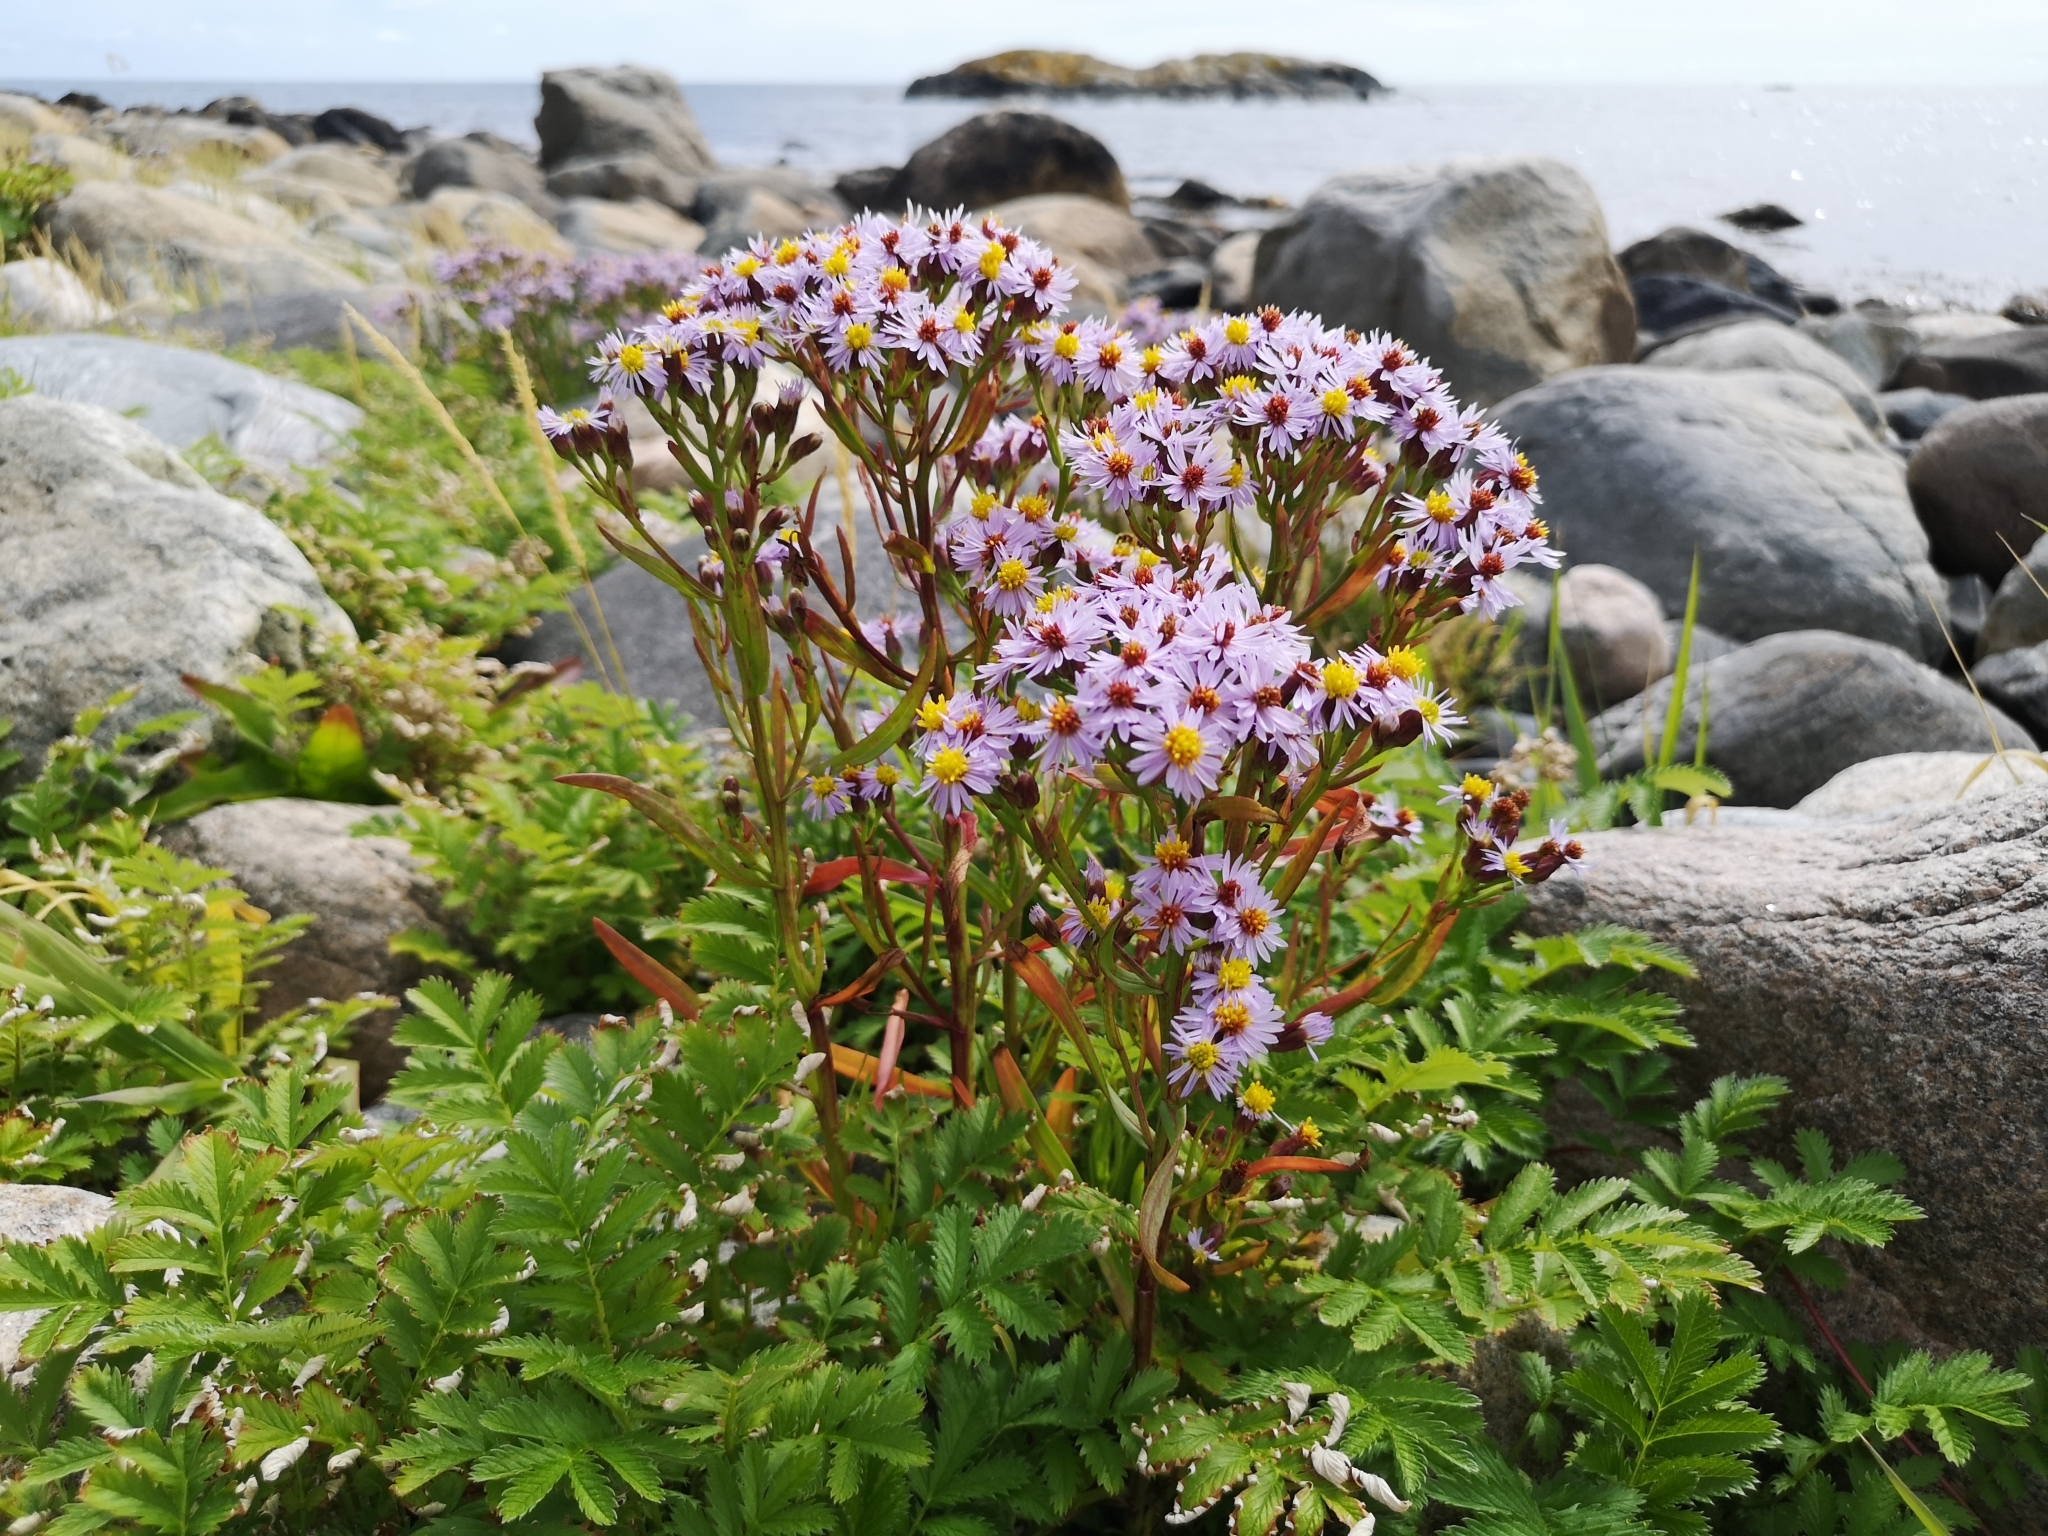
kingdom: Plantae
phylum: Tracheophyta
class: Magnoliopsida
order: Asterales
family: Asteraceae
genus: Tripolium
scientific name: Tripolium pannonicum
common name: Sea aster
